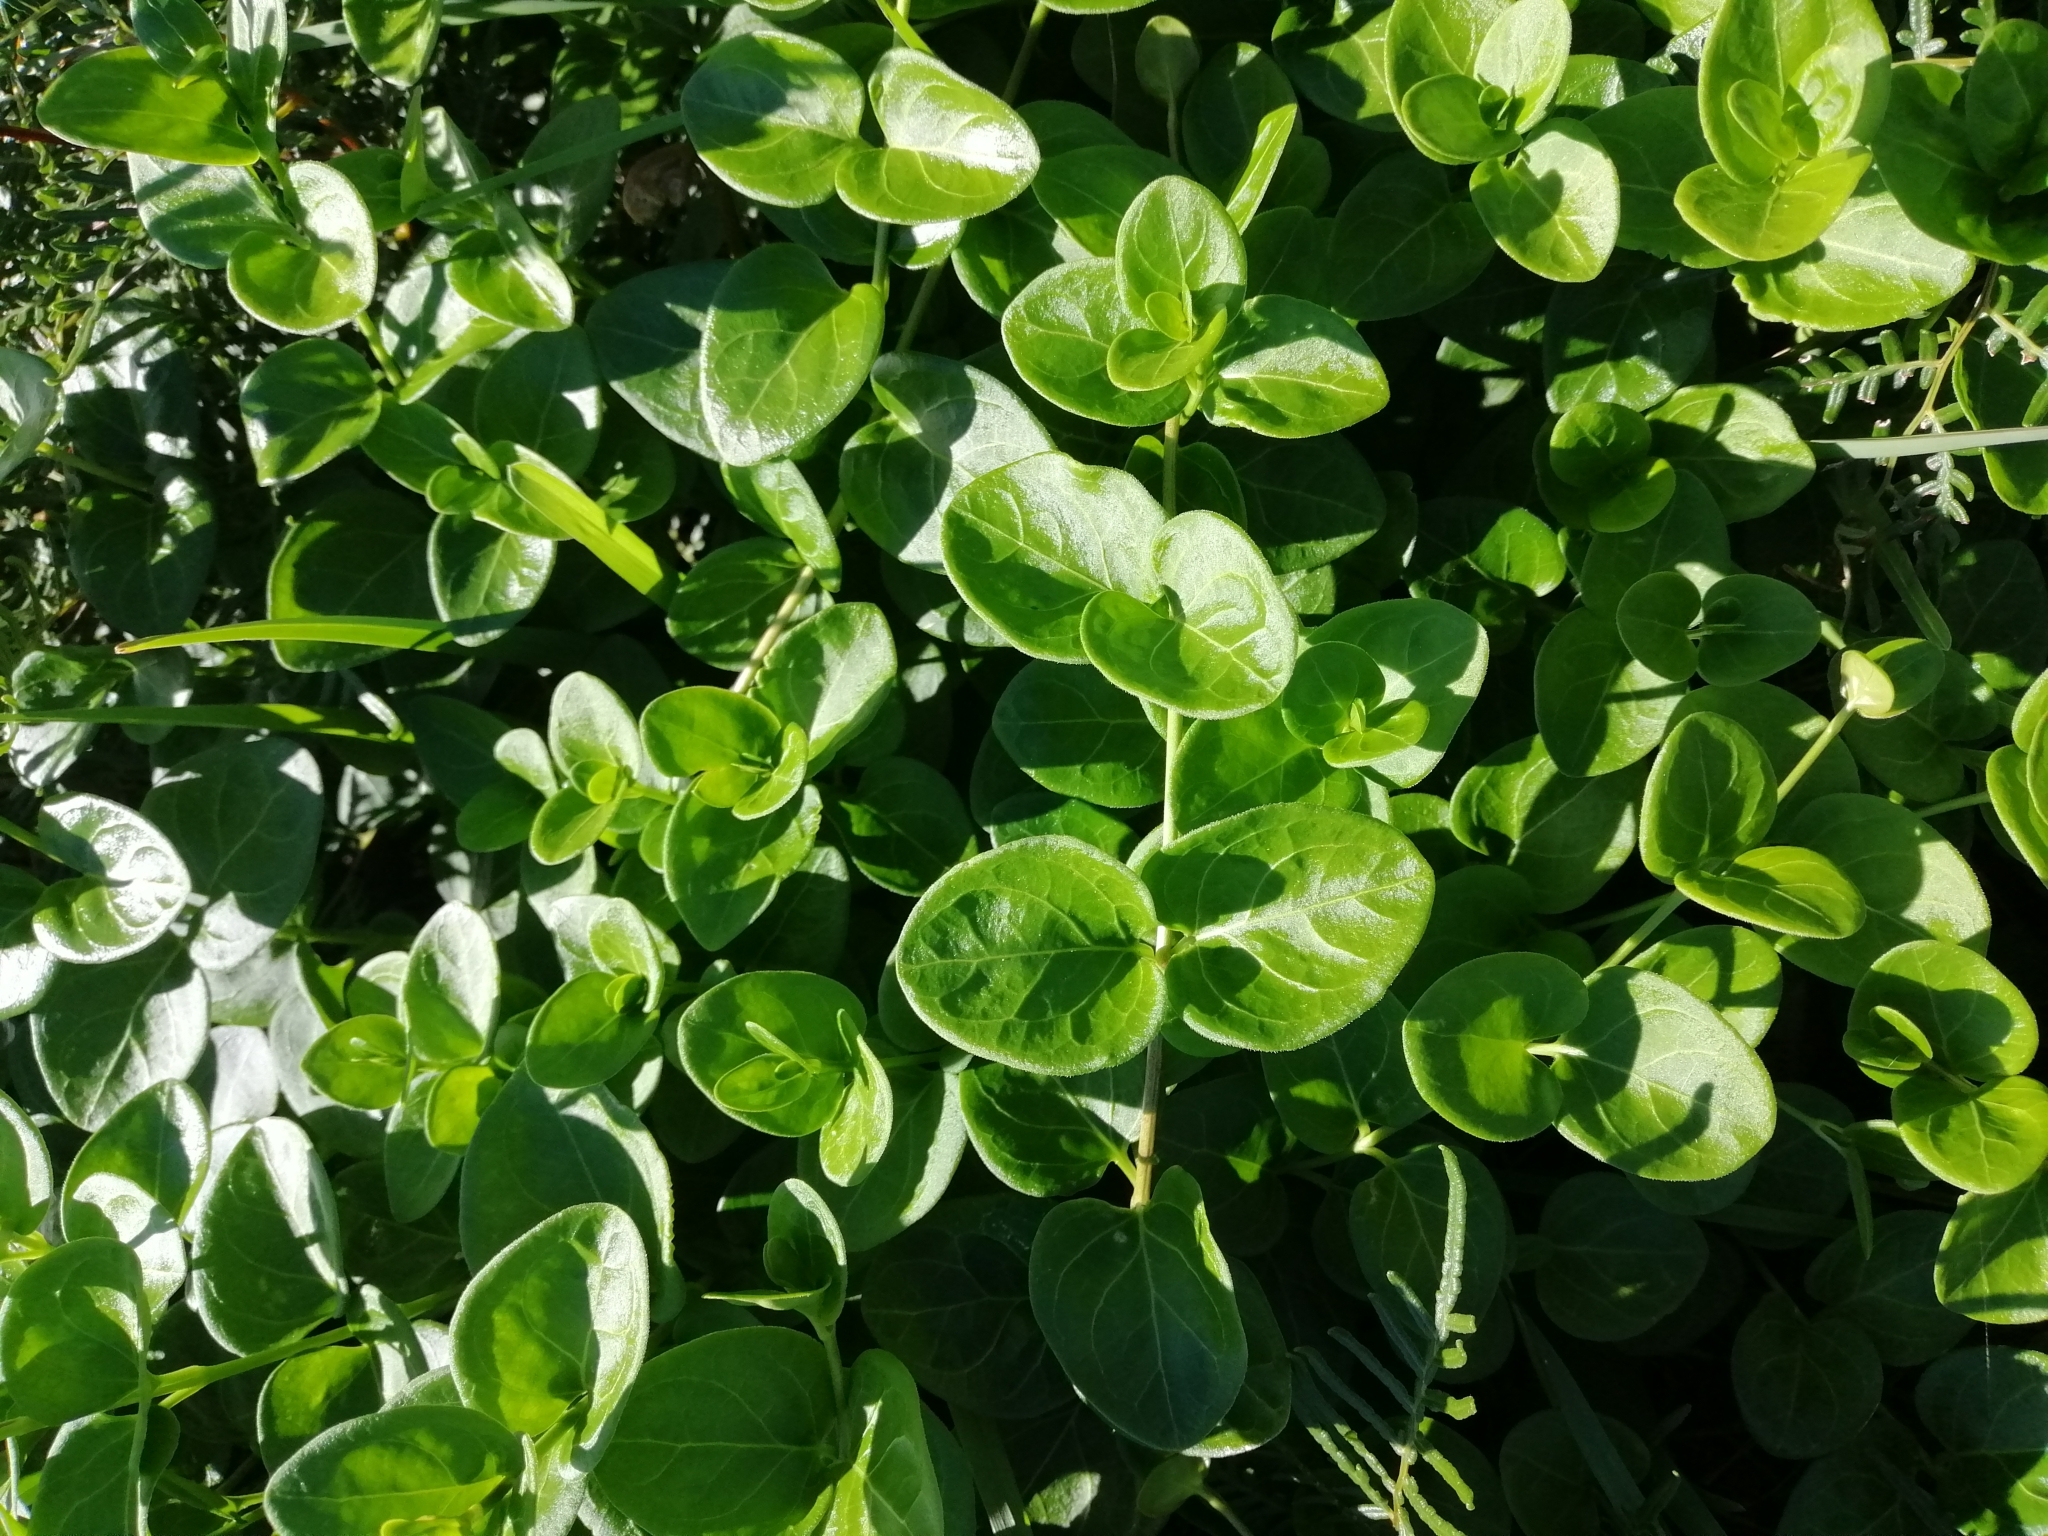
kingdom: Plantae
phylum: Tracheophyta
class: Magnoliopsida
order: Gentianales
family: Apocynaceae
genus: Vinca
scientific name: Vinca major
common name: Greater periwinkle
